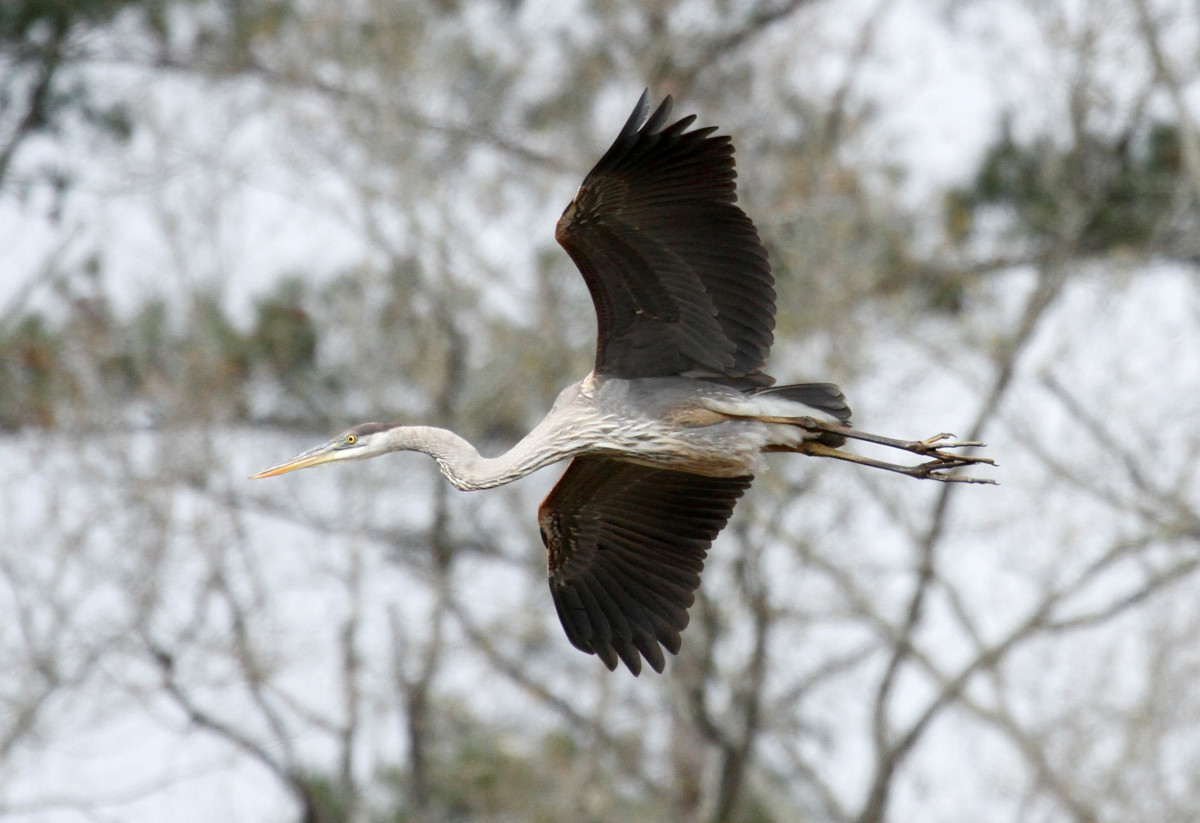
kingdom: Animalia
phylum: Chordata
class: Aves
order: Pelecaniformes
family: Ardeidae
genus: Ardea
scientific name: Ardea herodias
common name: Great blue heron
